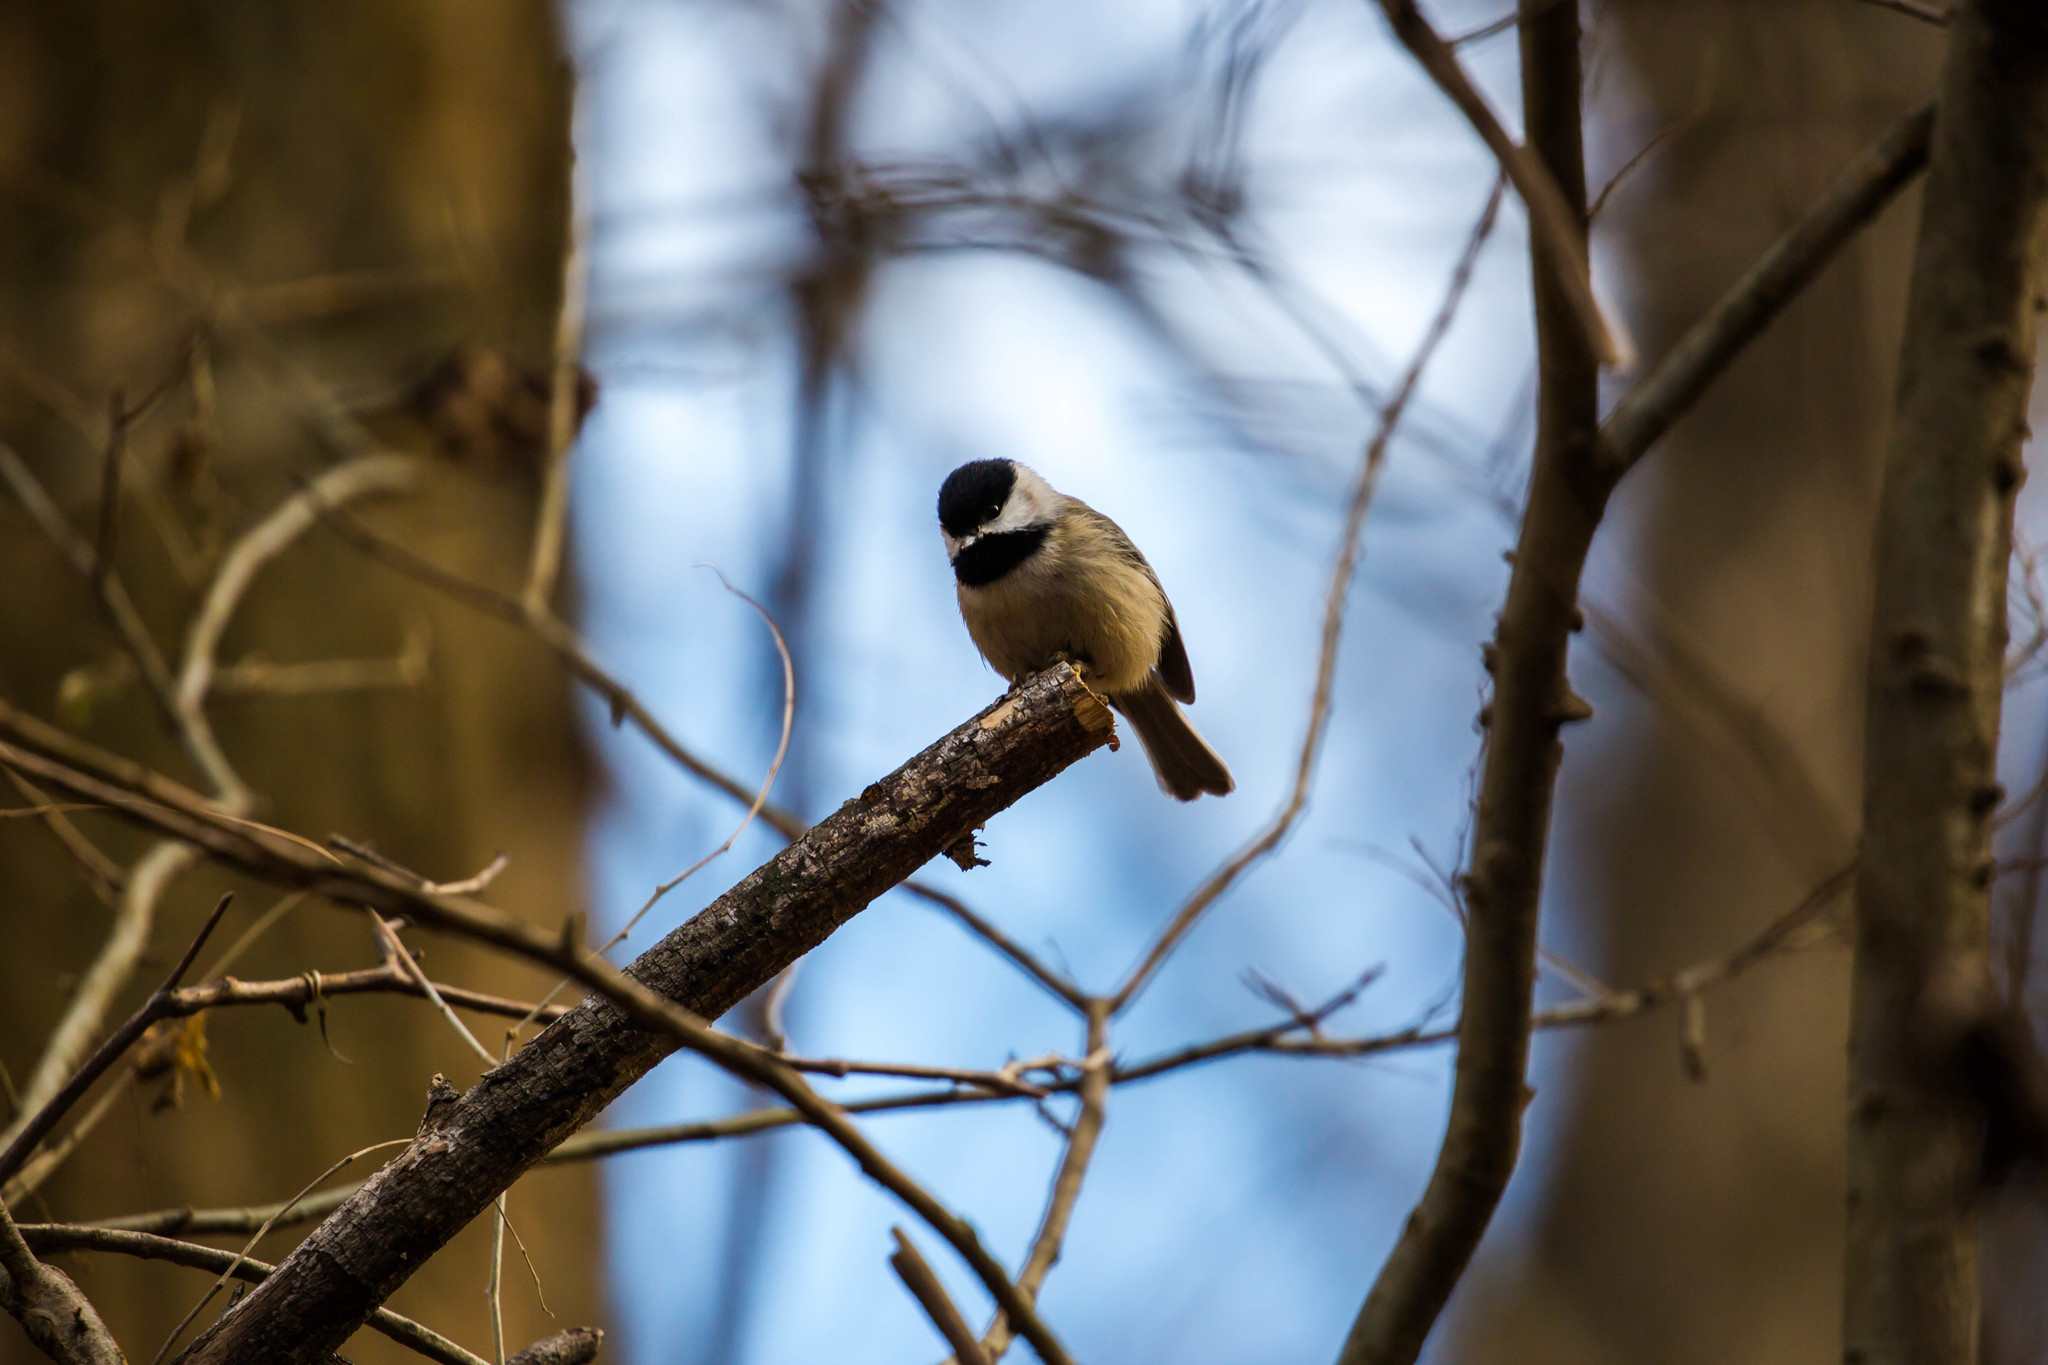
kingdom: Animalia
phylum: Chordata
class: Aves
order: Passeriformes
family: Paridae
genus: Poecile
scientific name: Poecile carolinensis
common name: Carolina chickadee
